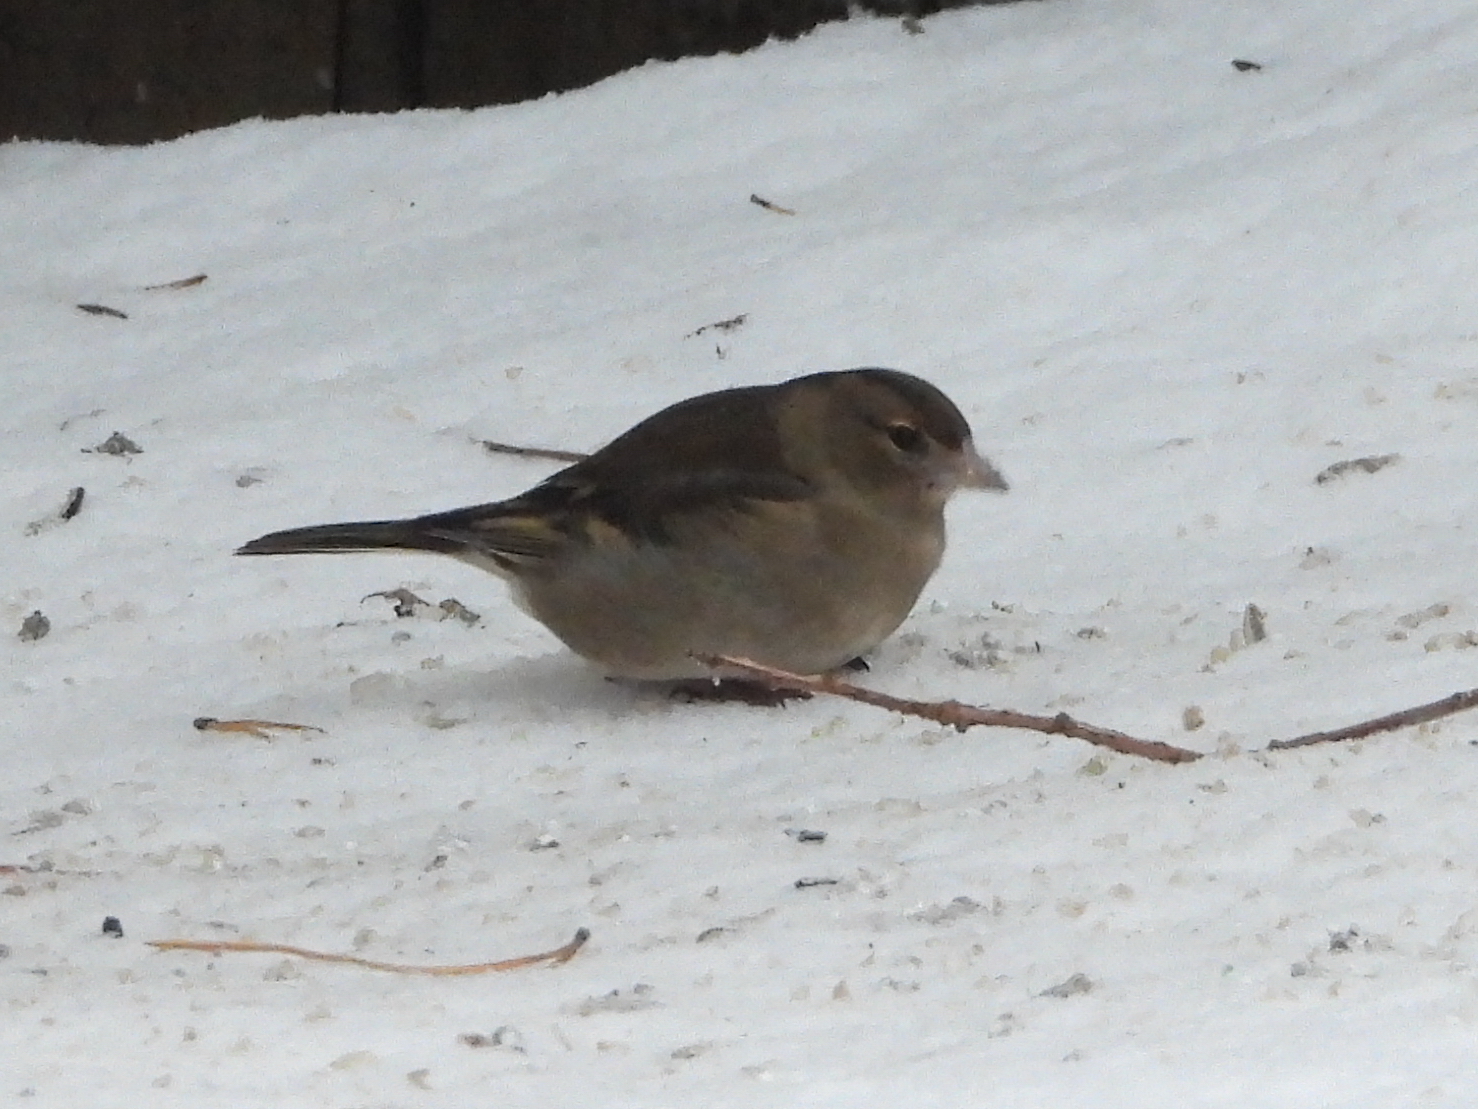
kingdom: Animalia
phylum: Chordata
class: Aves
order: Passeriformes
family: Fringillidae
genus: Fringilla
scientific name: Fringilla coelebs
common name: Common chaffinch
